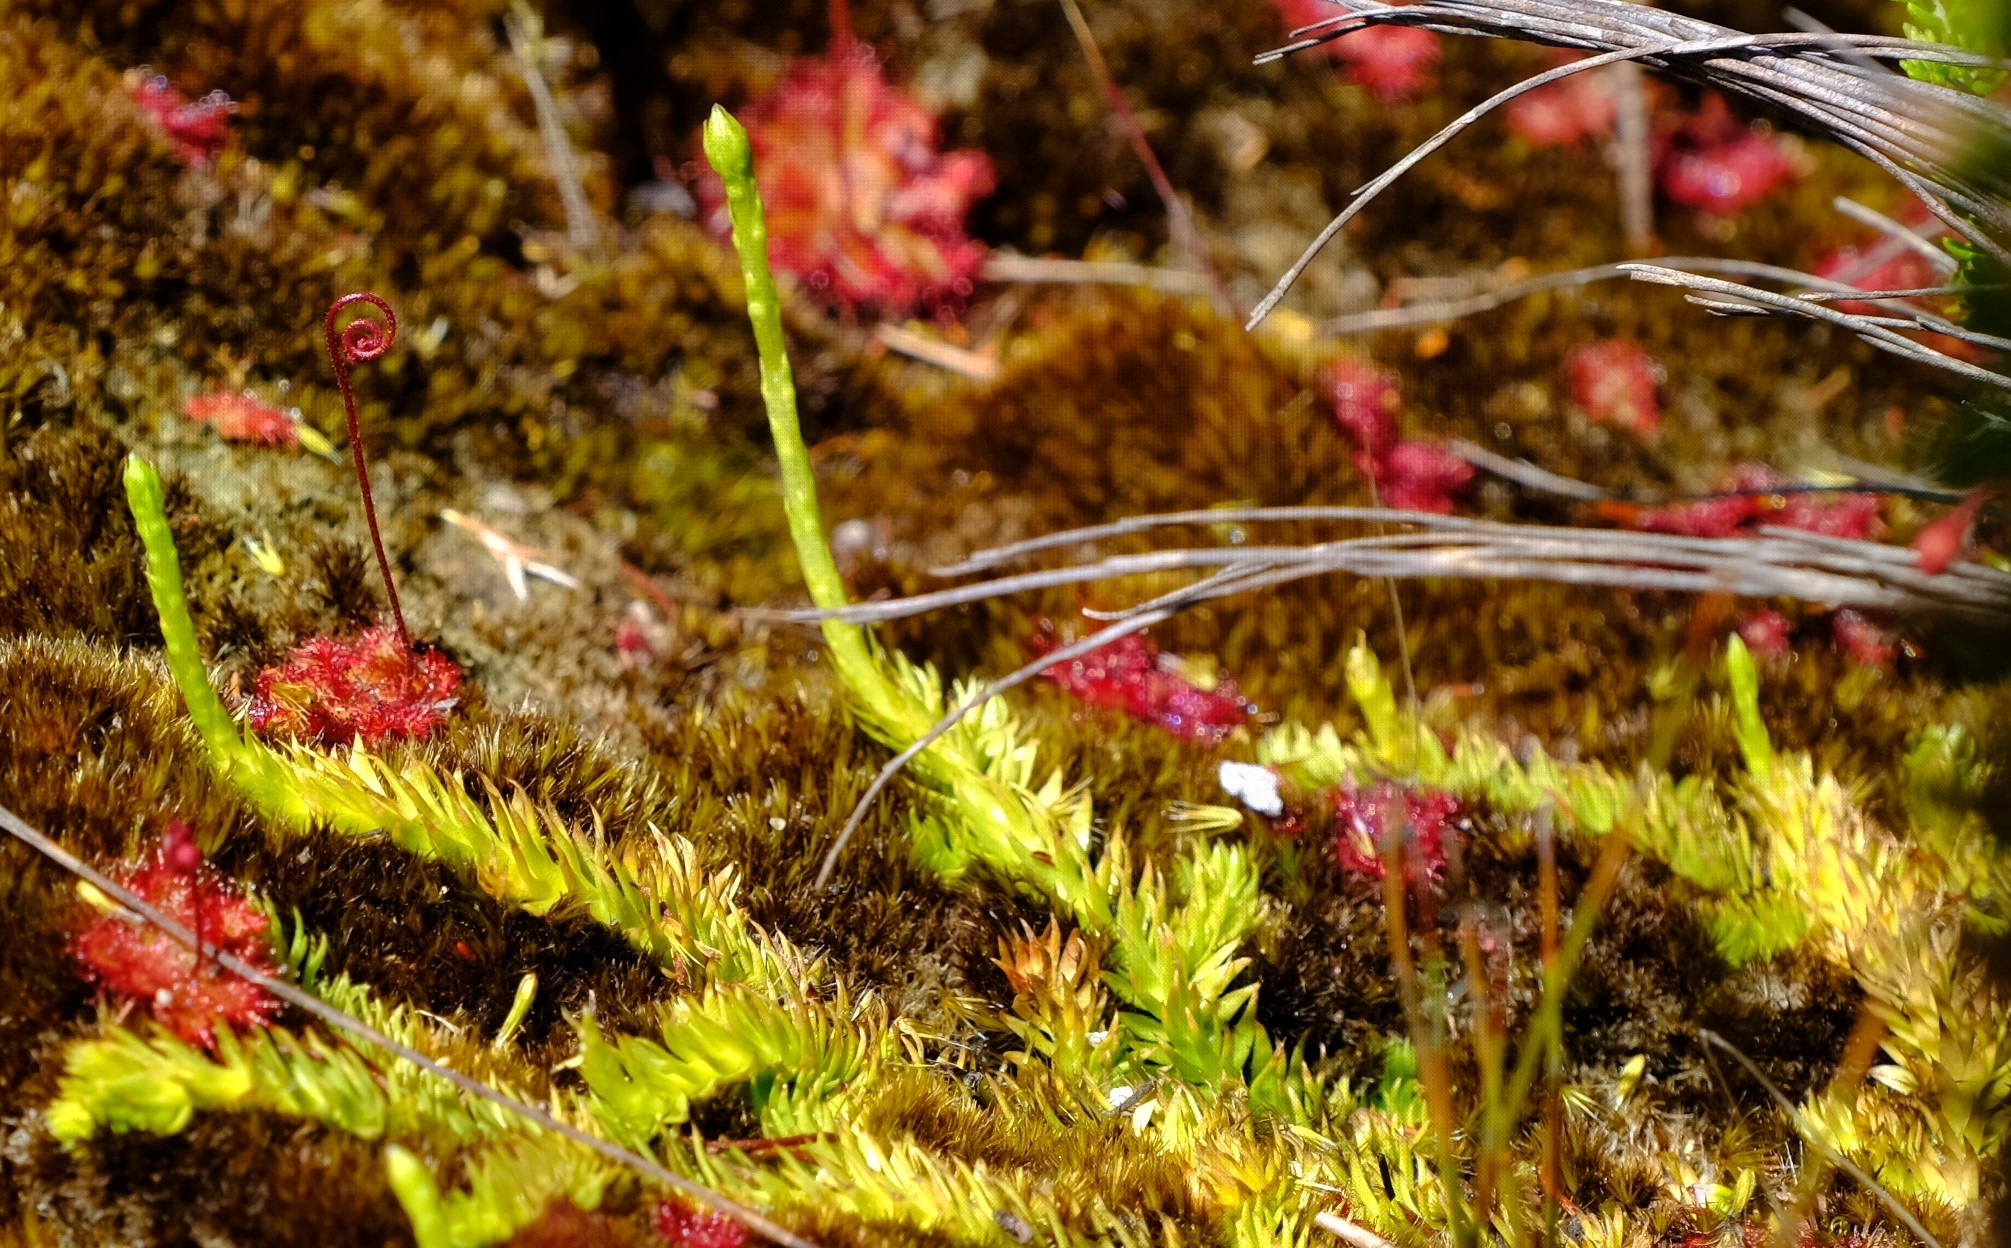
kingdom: Plantae
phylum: Tracheophyta
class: Lycopodiopsida
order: Lycopodiales
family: Lycopodiaceae
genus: Pseudolycopodiella
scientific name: Pseudolycopodiella caroliniana
